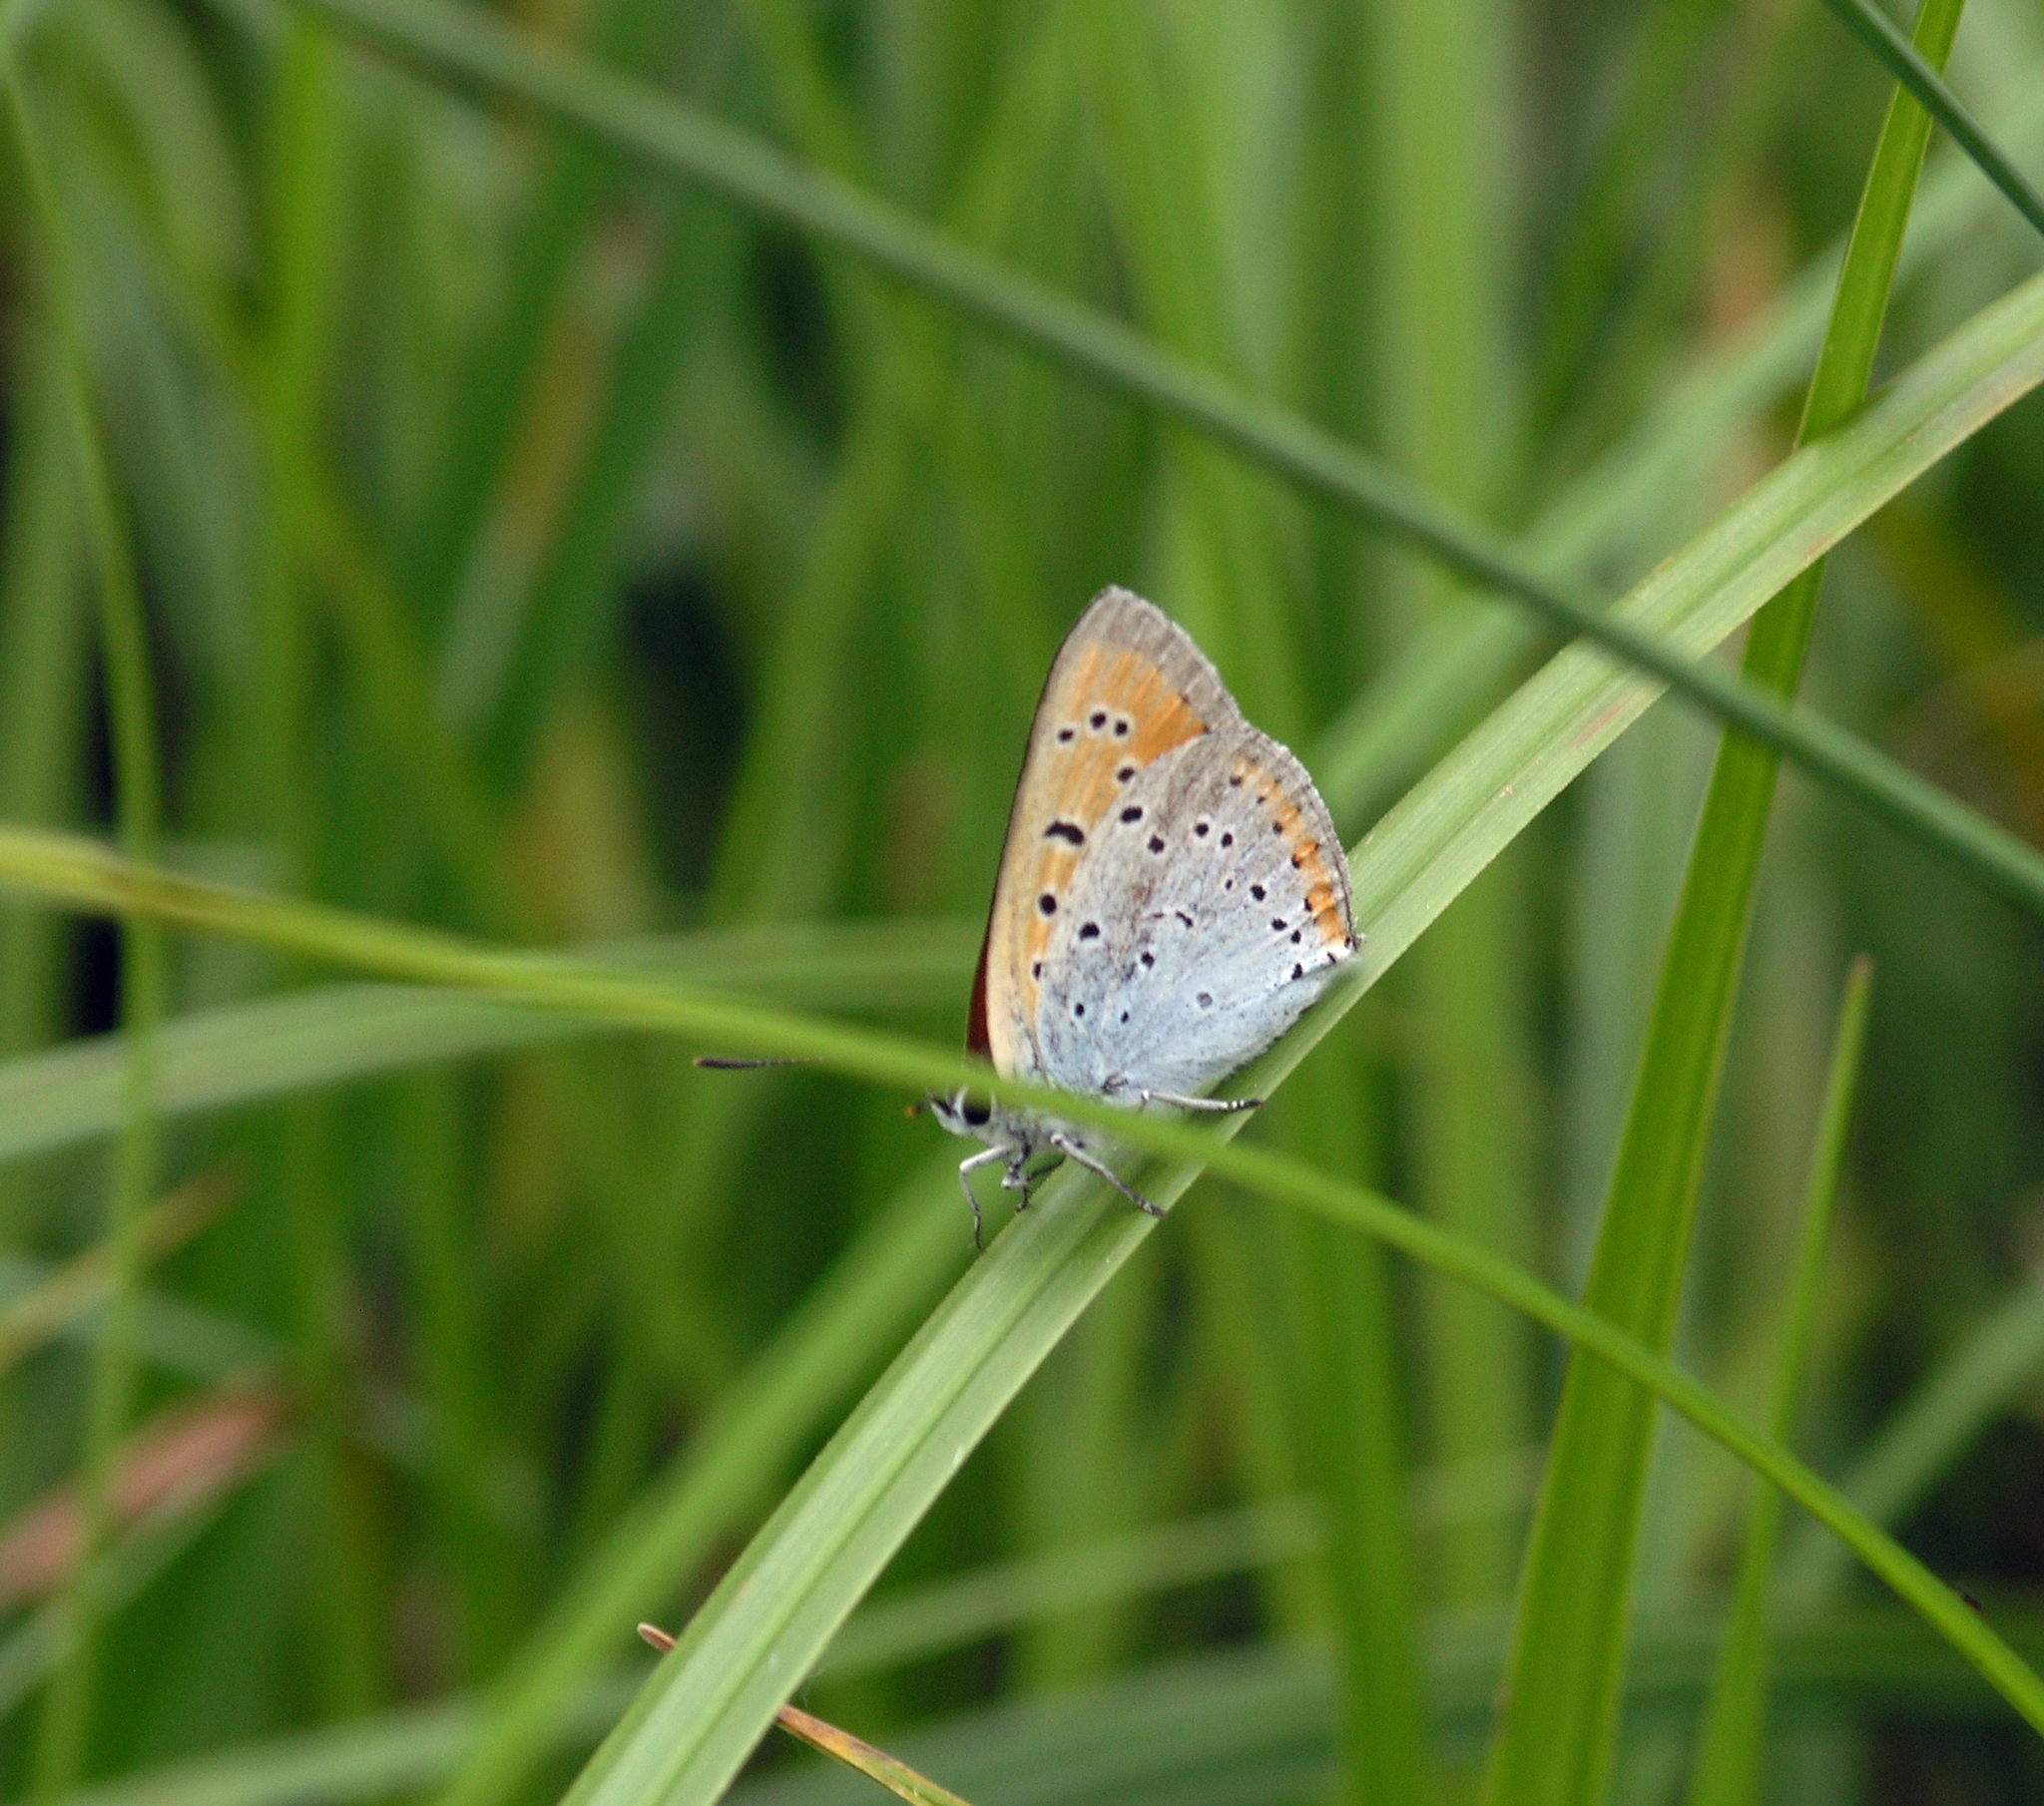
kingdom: Animalia
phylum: Arthropoda
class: Insecta
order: Lepidoptera
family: Lycaenidae
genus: Lycaena
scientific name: Lycaena dispar
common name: Large copper
